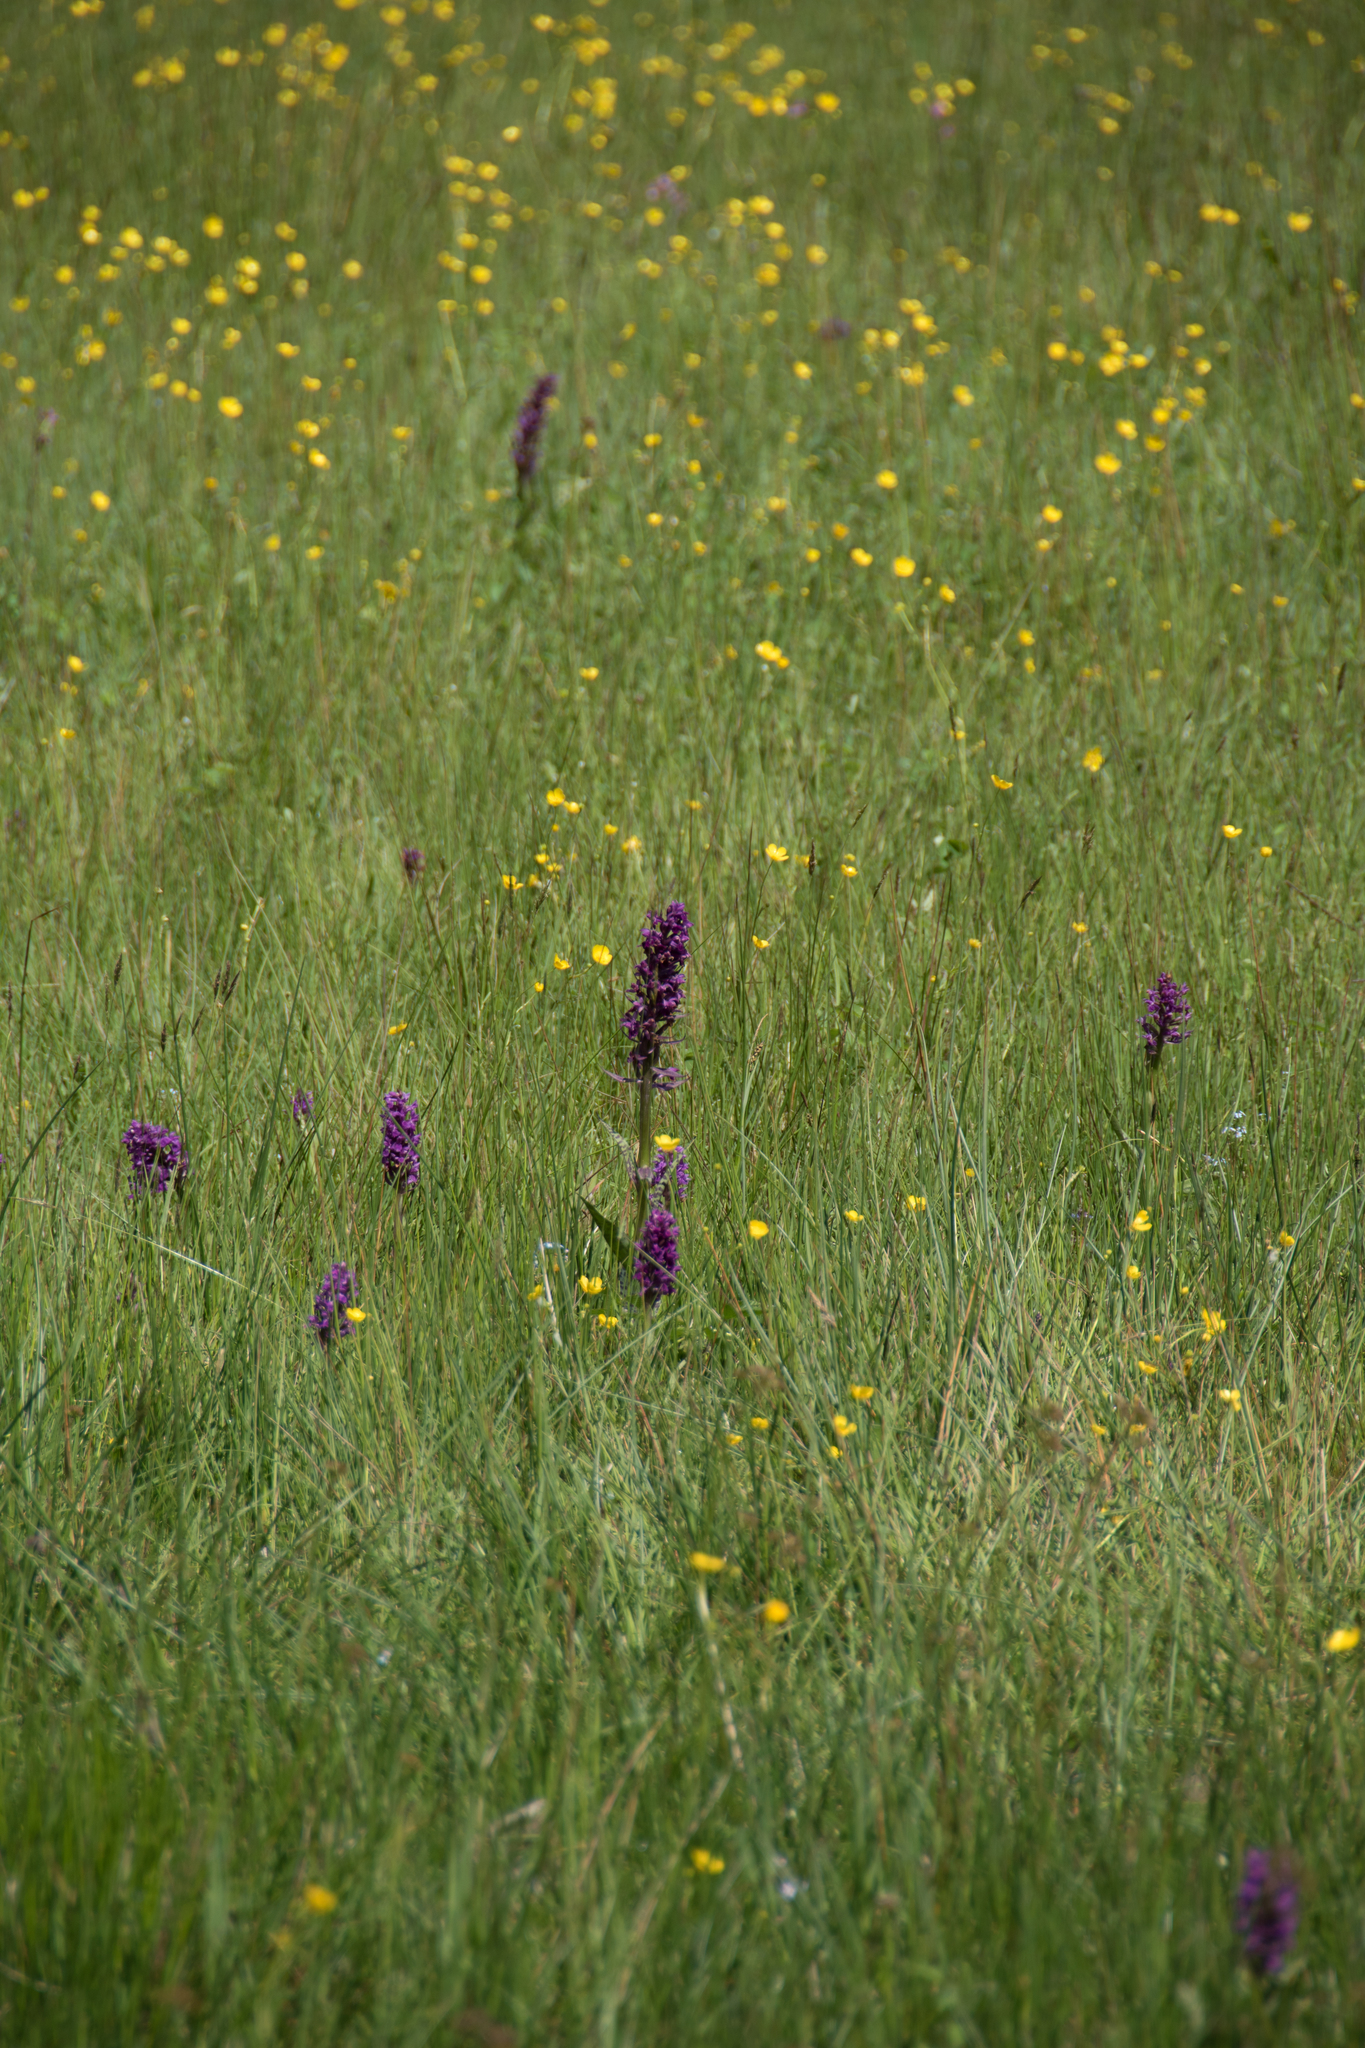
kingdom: Plantae
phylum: Tracheophyta
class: Liliopsida
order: Asparagales
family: Orchidaceae
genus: Dactylorhiza
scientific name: Dactylorhiza majalis
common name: Marsh orchid
